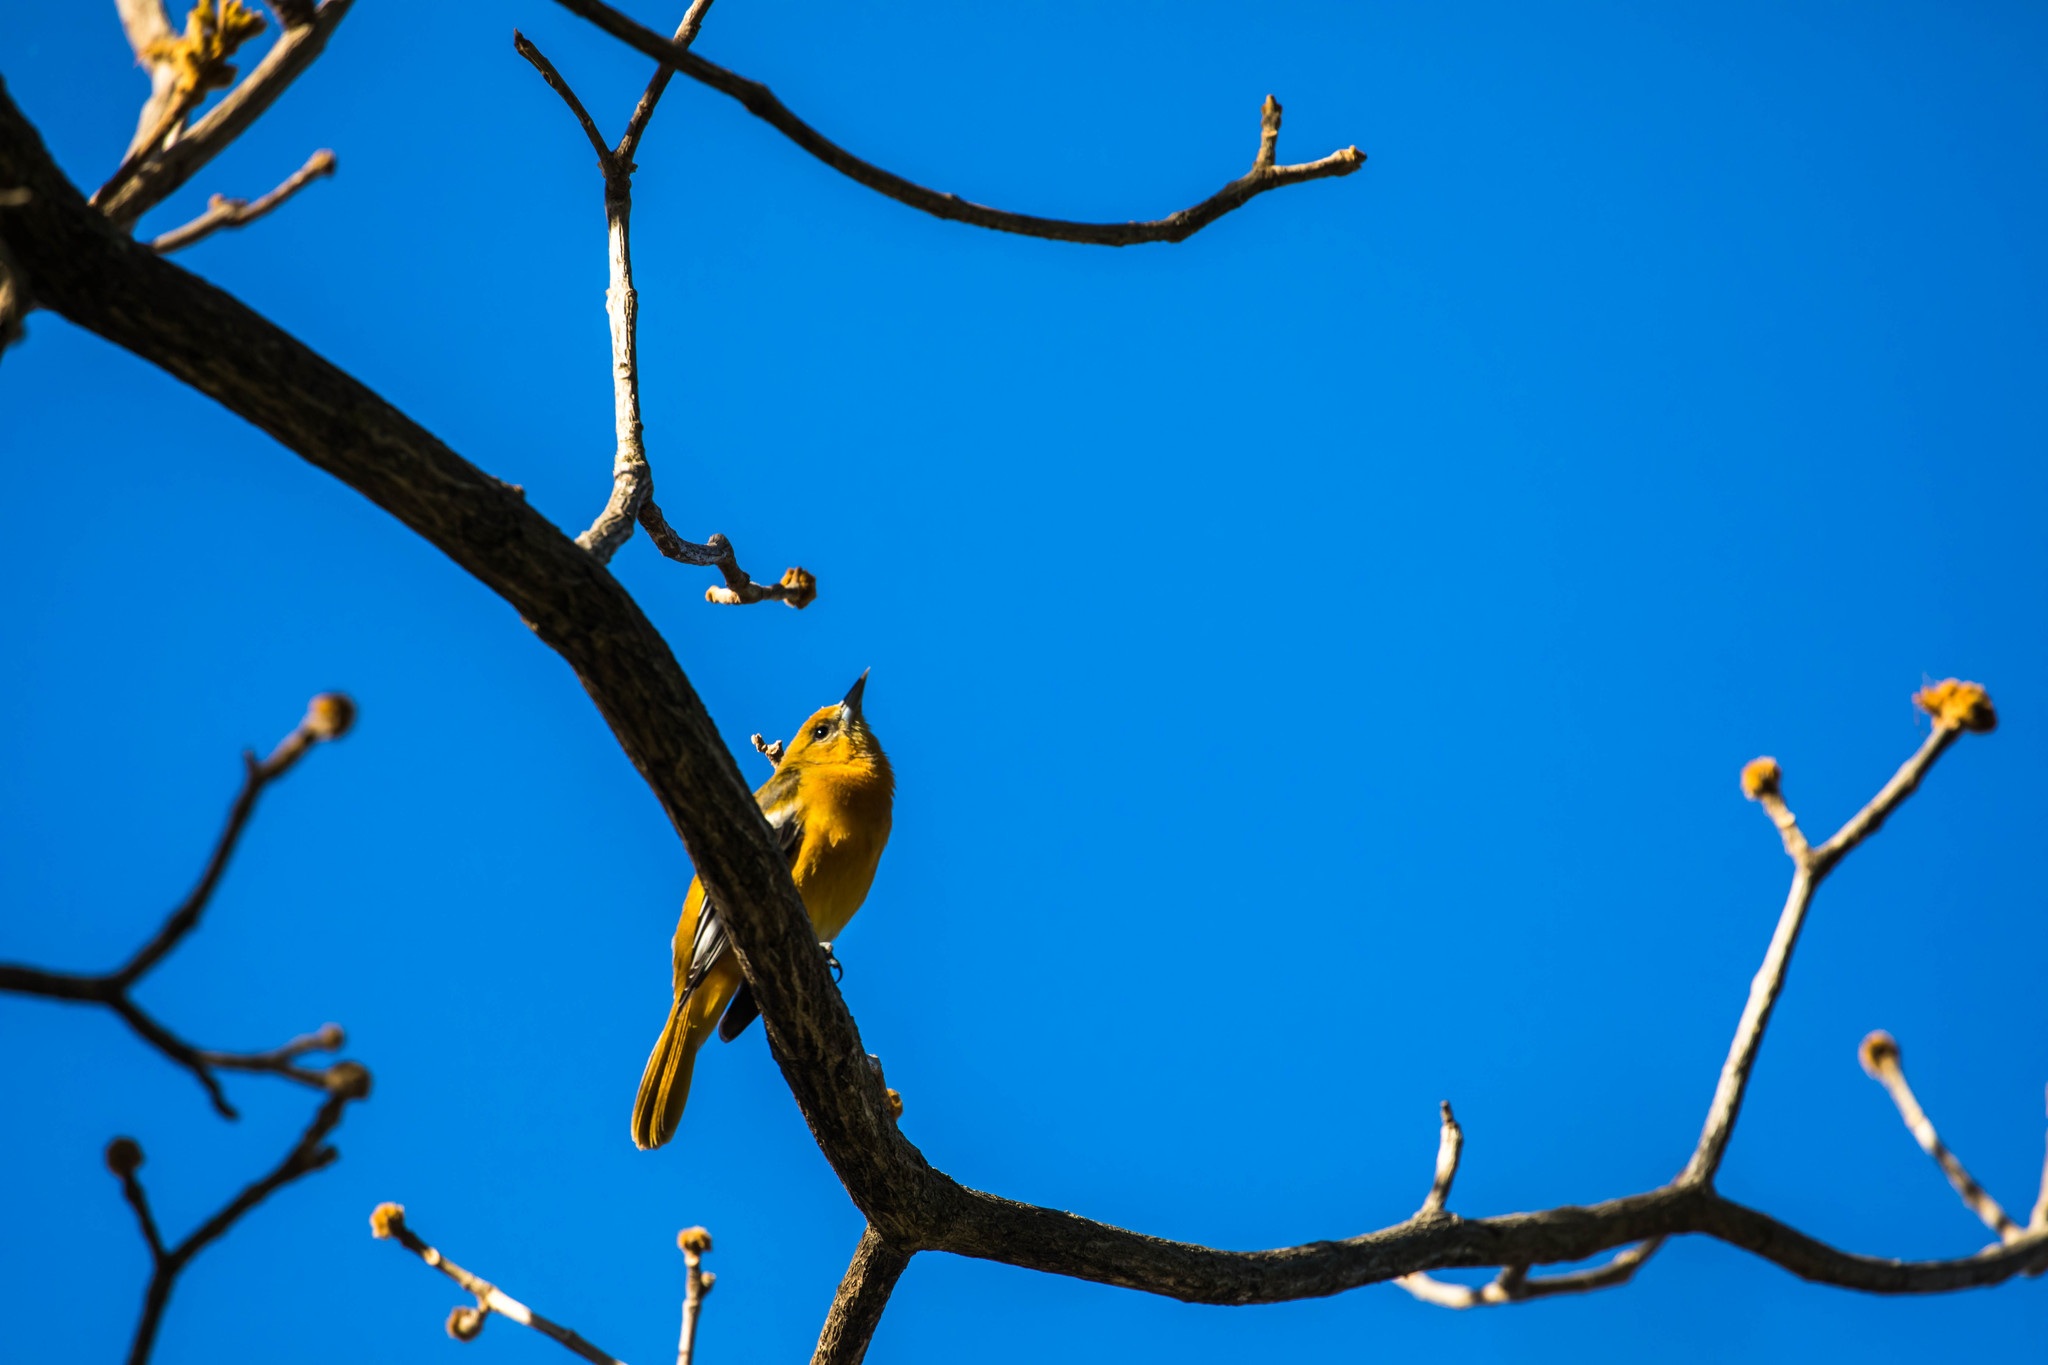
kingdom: Animalia
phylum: Chordata
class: Aves
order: Passeriformes
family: Icteridae
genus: Icterus
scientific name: Icterus galbula
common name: Baltimore oriole
